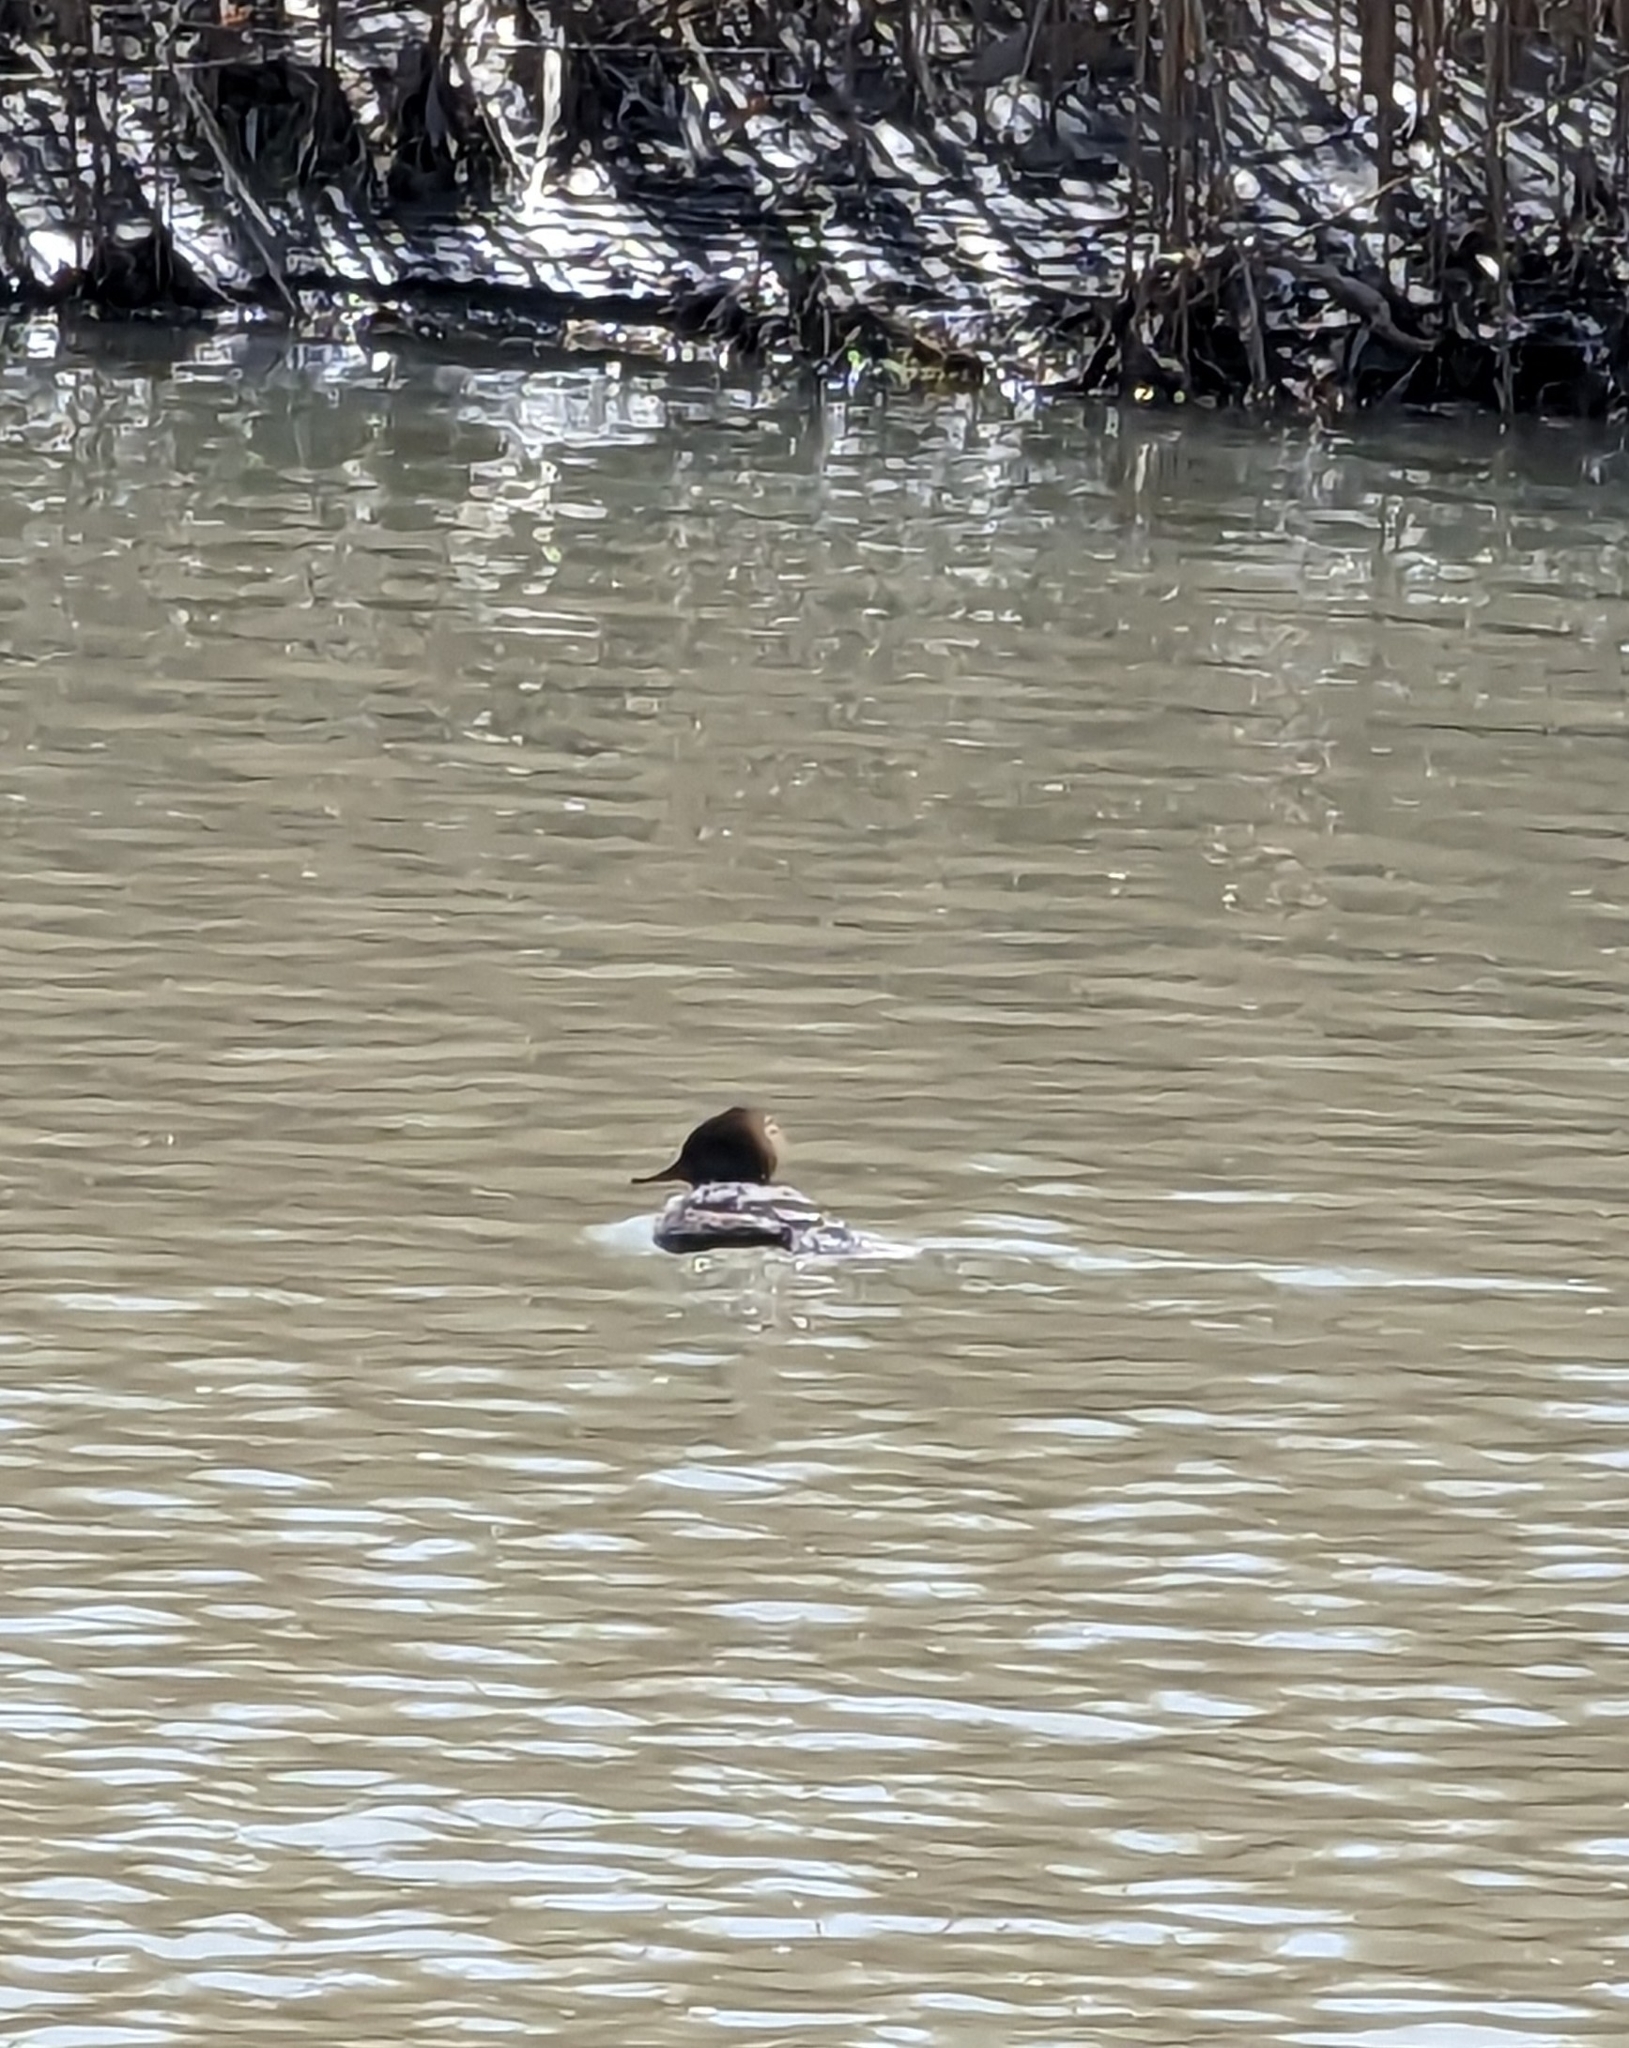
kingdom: Animalia
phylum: Chordata
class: Aves
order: Anseriformes
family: Anatidae
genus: Lophodytes
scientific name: Lophodytes cucullatus
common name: Hooded merganser
